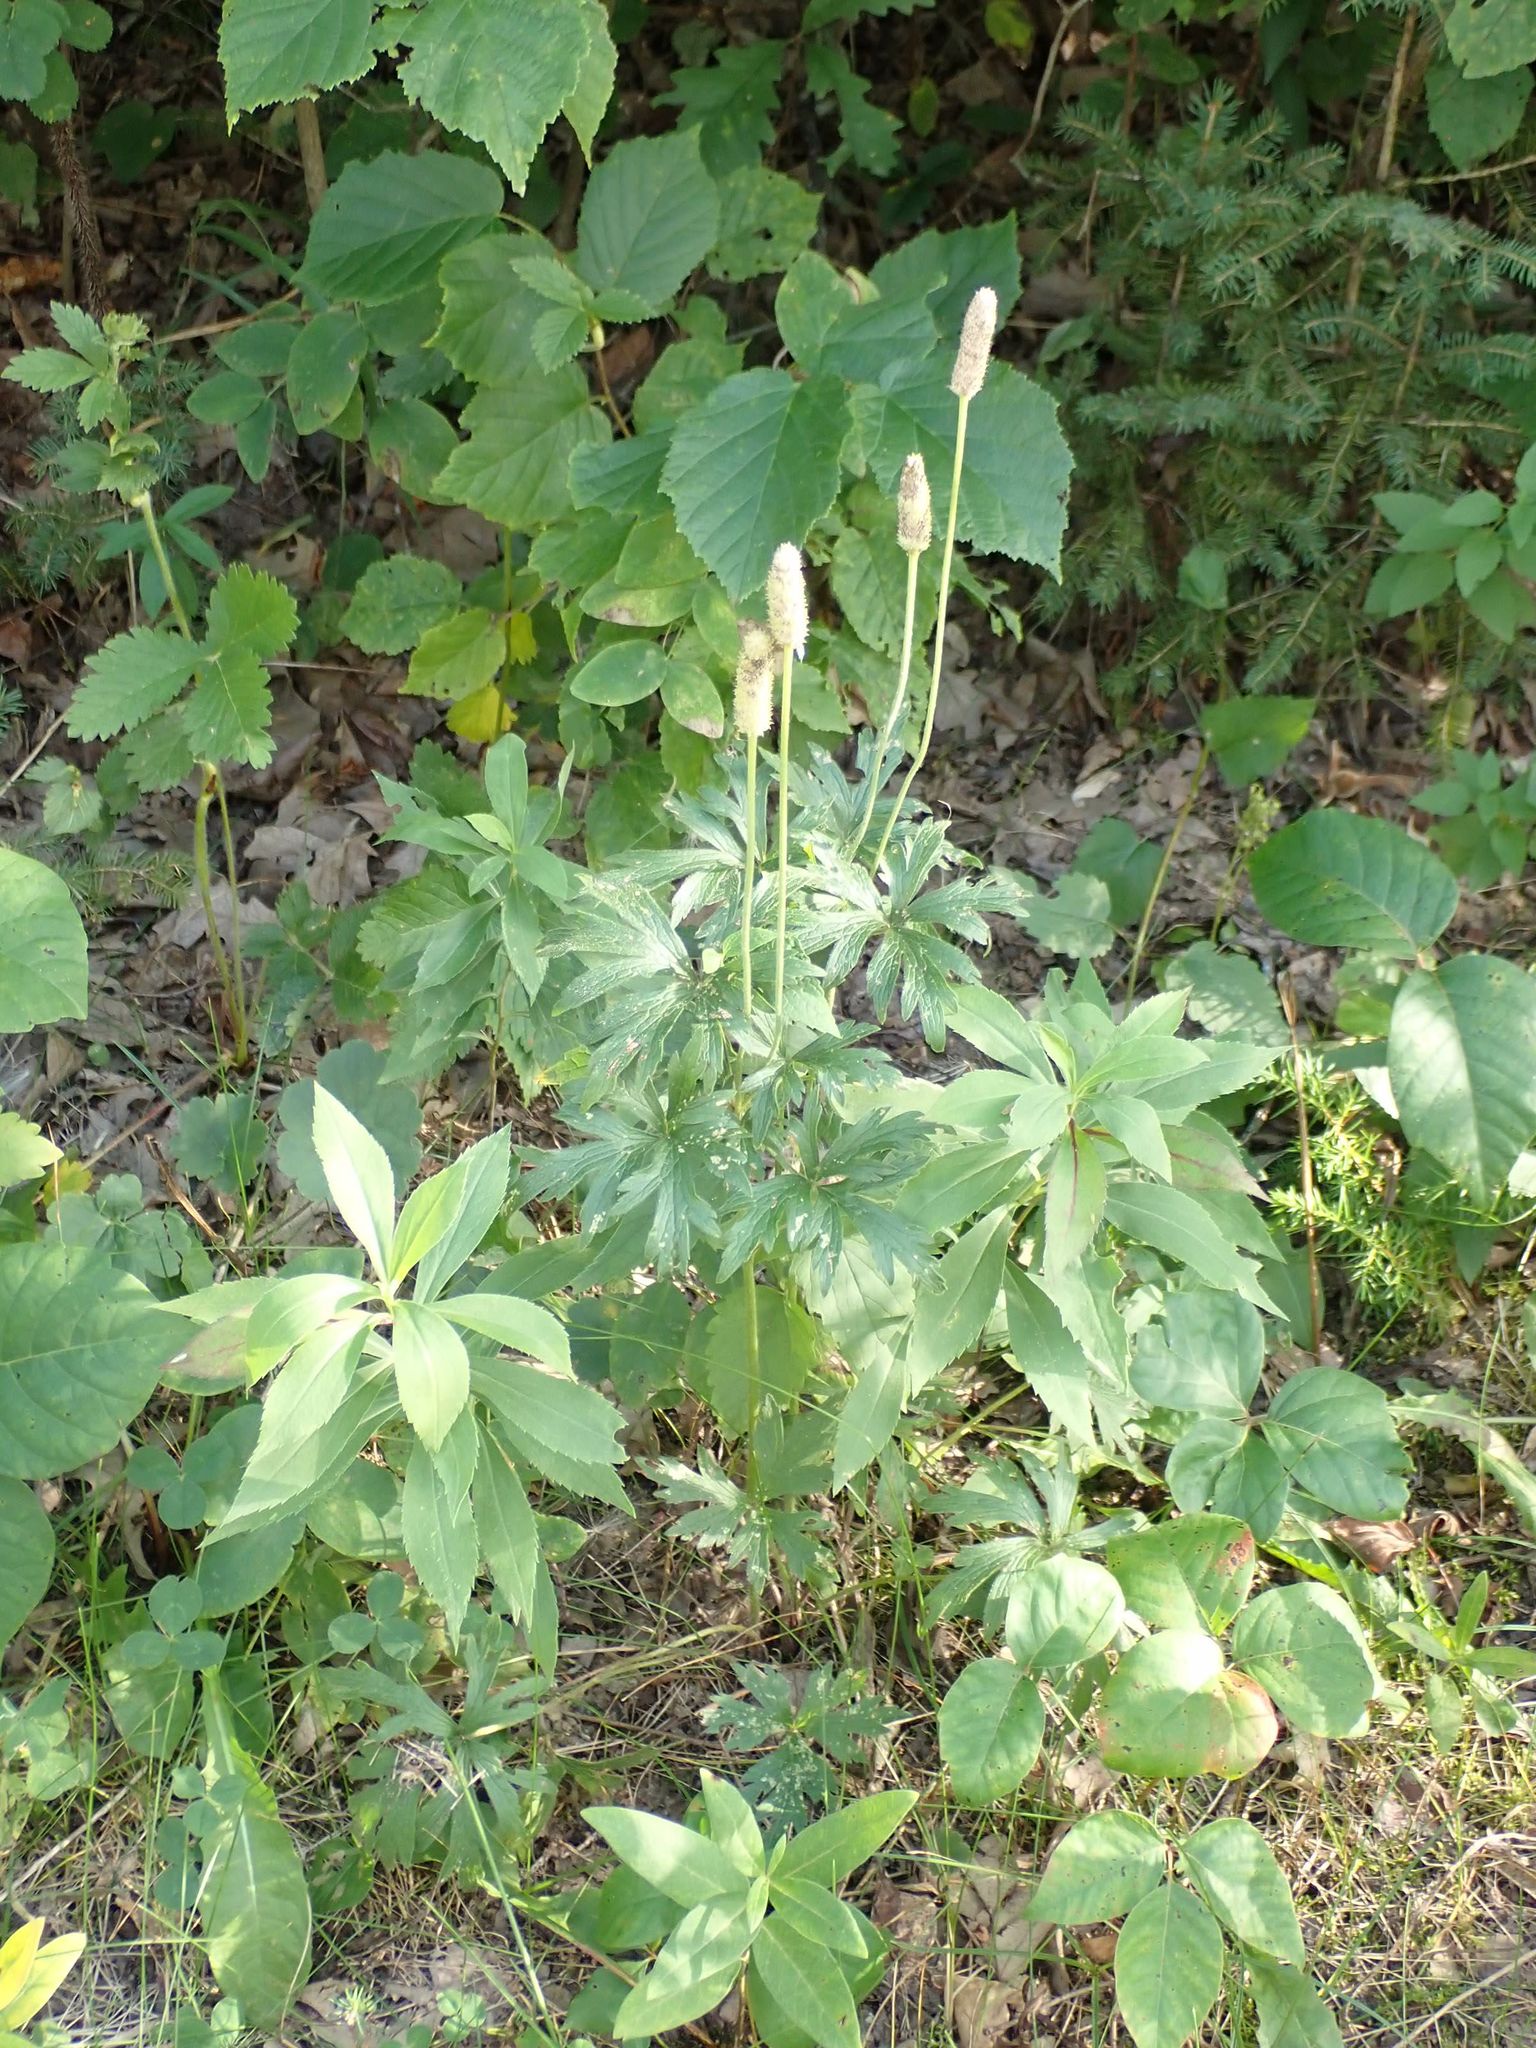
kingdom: Plantae
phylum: Tracheophyta
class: Magnoliopsida
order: Ranunculales
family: Ranunculaceae
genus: Anemone
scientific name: Anemone virginiana
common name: Tall anemone
